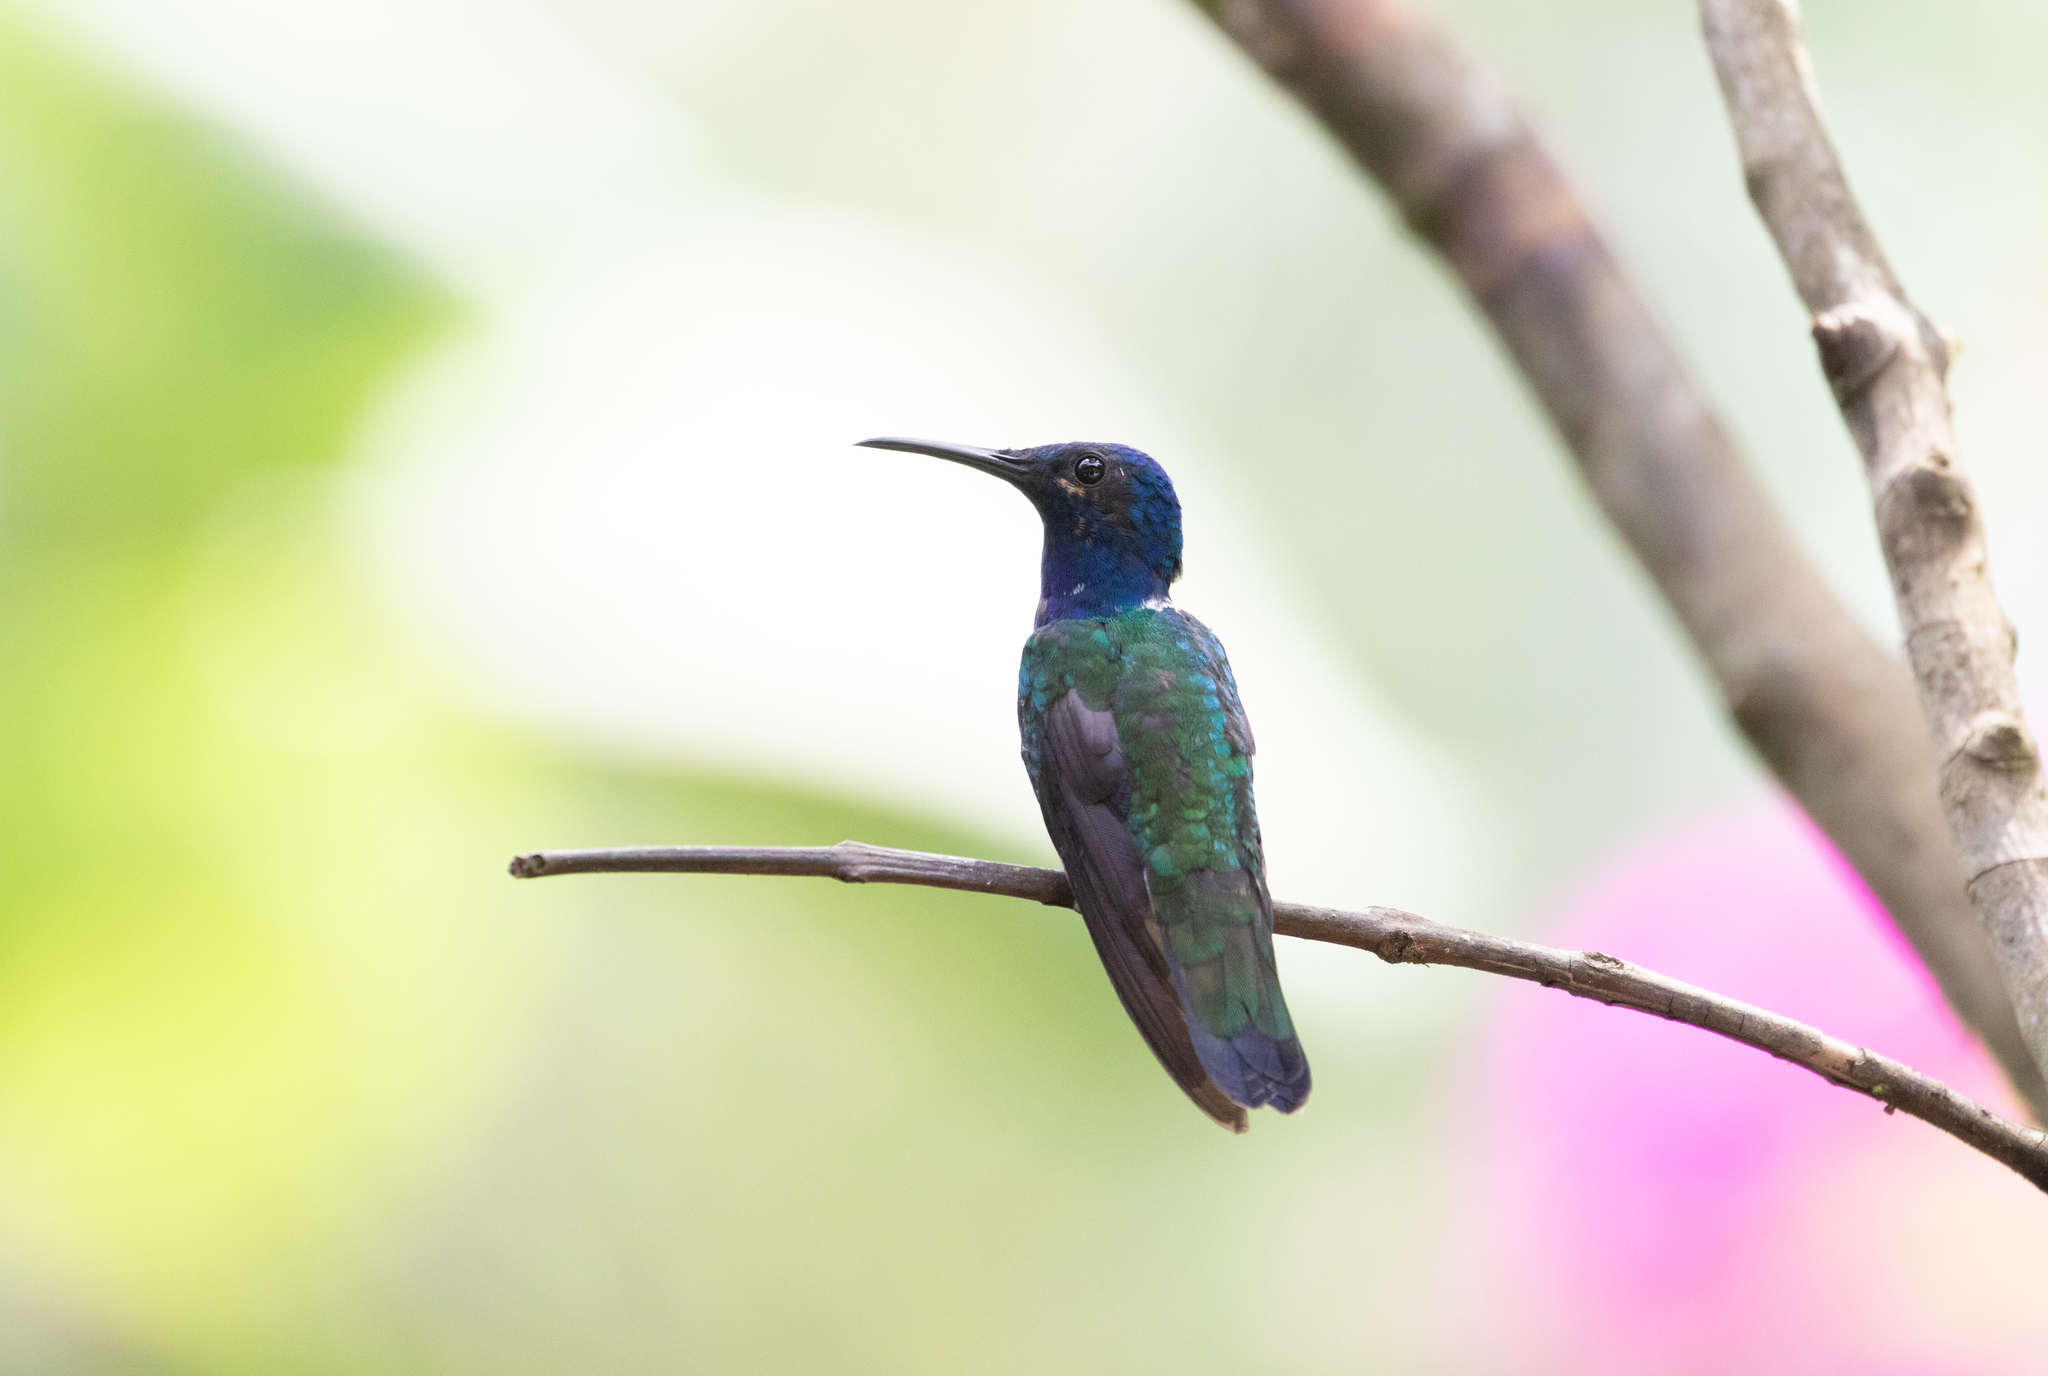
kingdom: Animalia
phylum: Chordata
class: Aves
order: Apodiformes
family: Trochilidae
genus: Florisuga
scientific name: Florisuga mellivora
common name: White-necked jacobin
